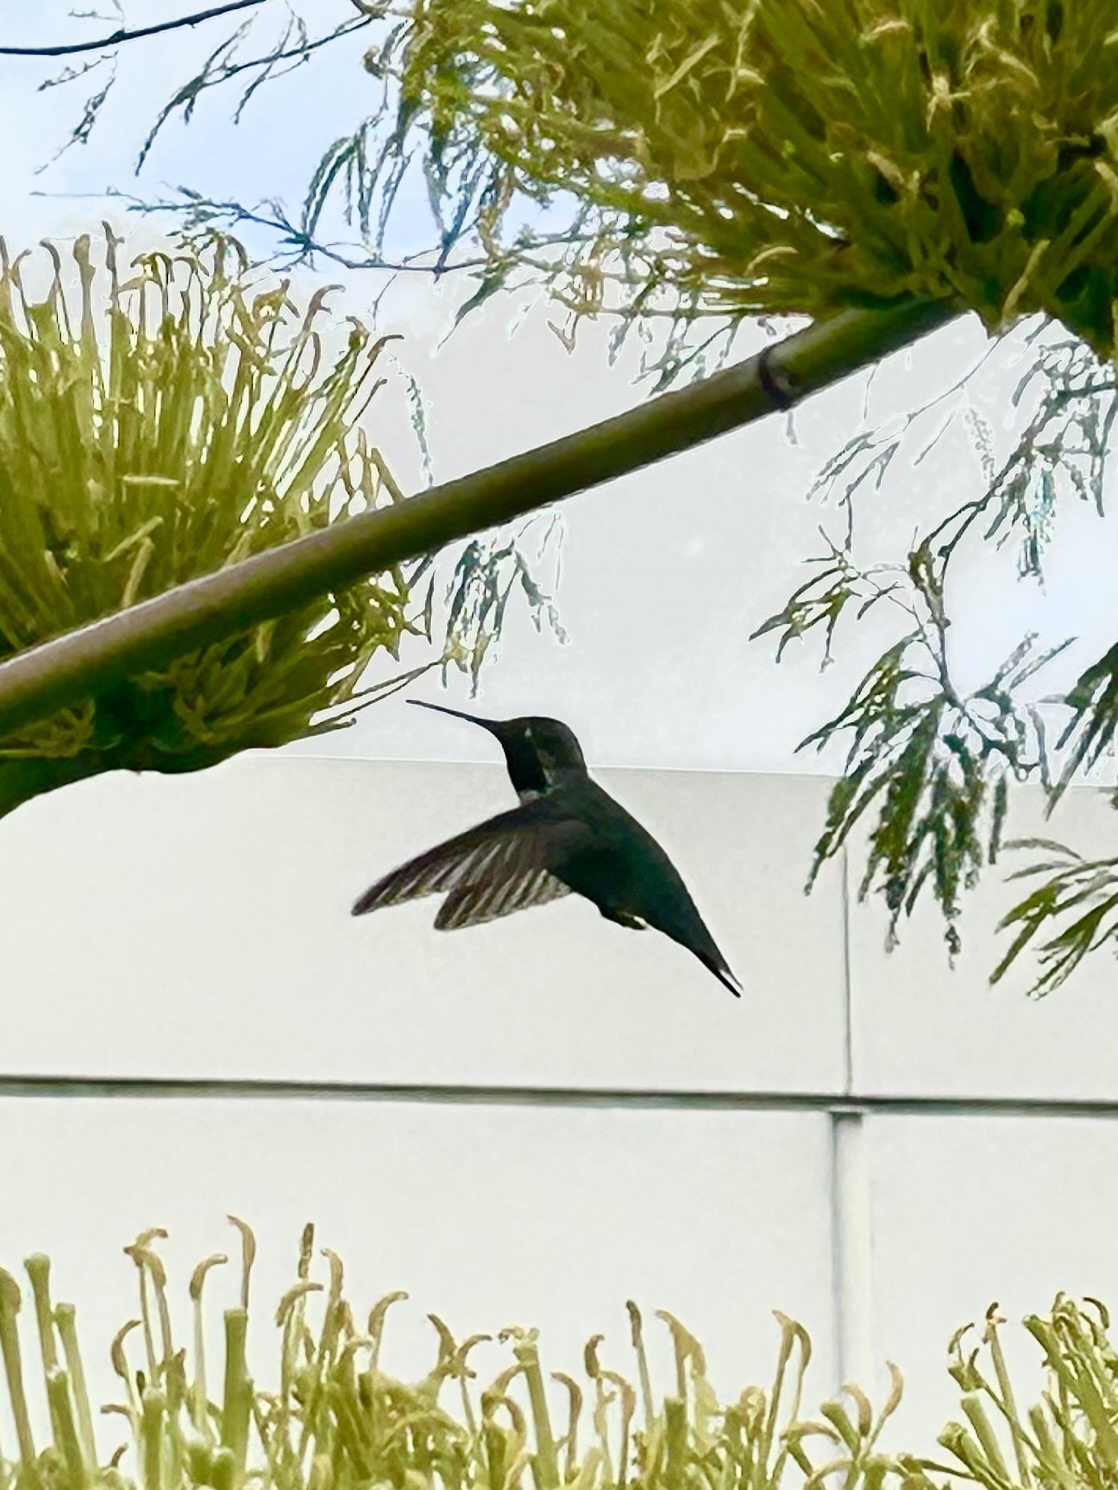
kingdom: Animalia
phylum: Chordata
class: Aves
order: Apodiformes
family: Trochilidae
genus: Calypte
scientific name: Calypte anna
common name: Anna's hummingbird
